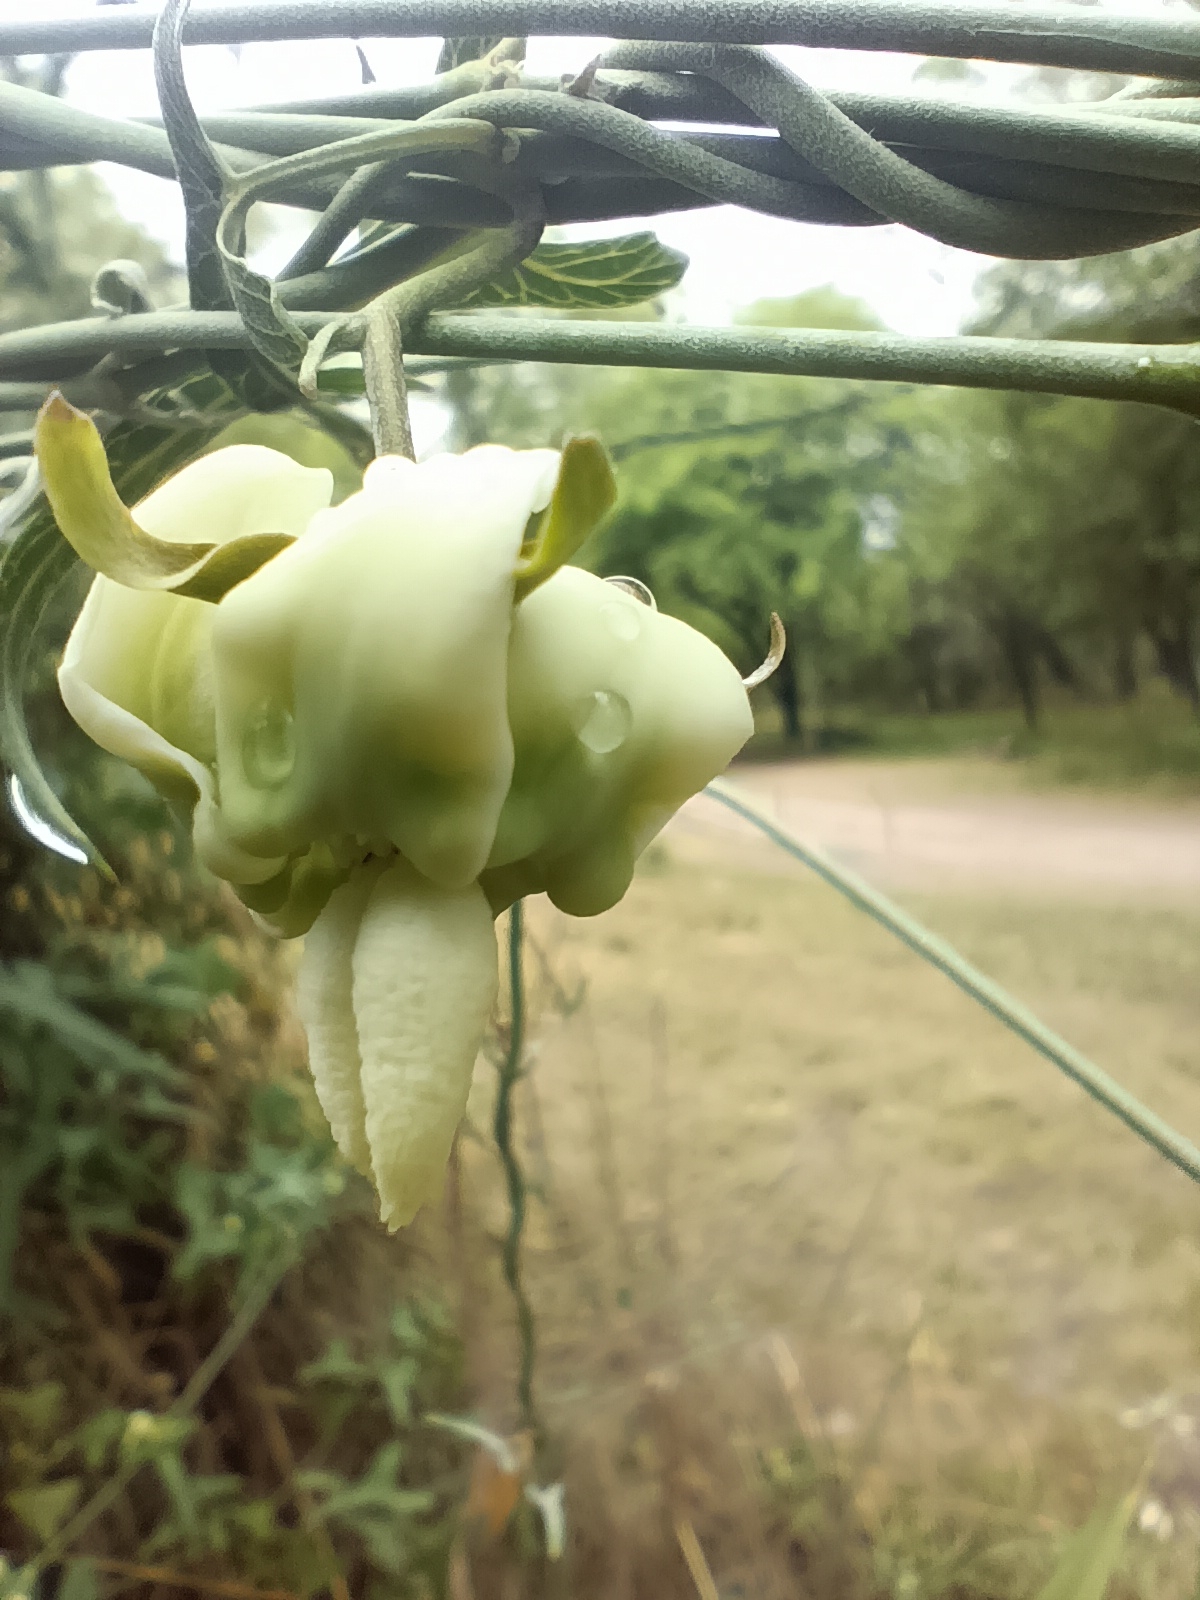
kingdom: Plantae
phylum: Tracheophyta
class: Magnoliopsida
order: Gentianales
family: Apocynaceae
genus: Araujia
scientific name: Araujia angustifolia
